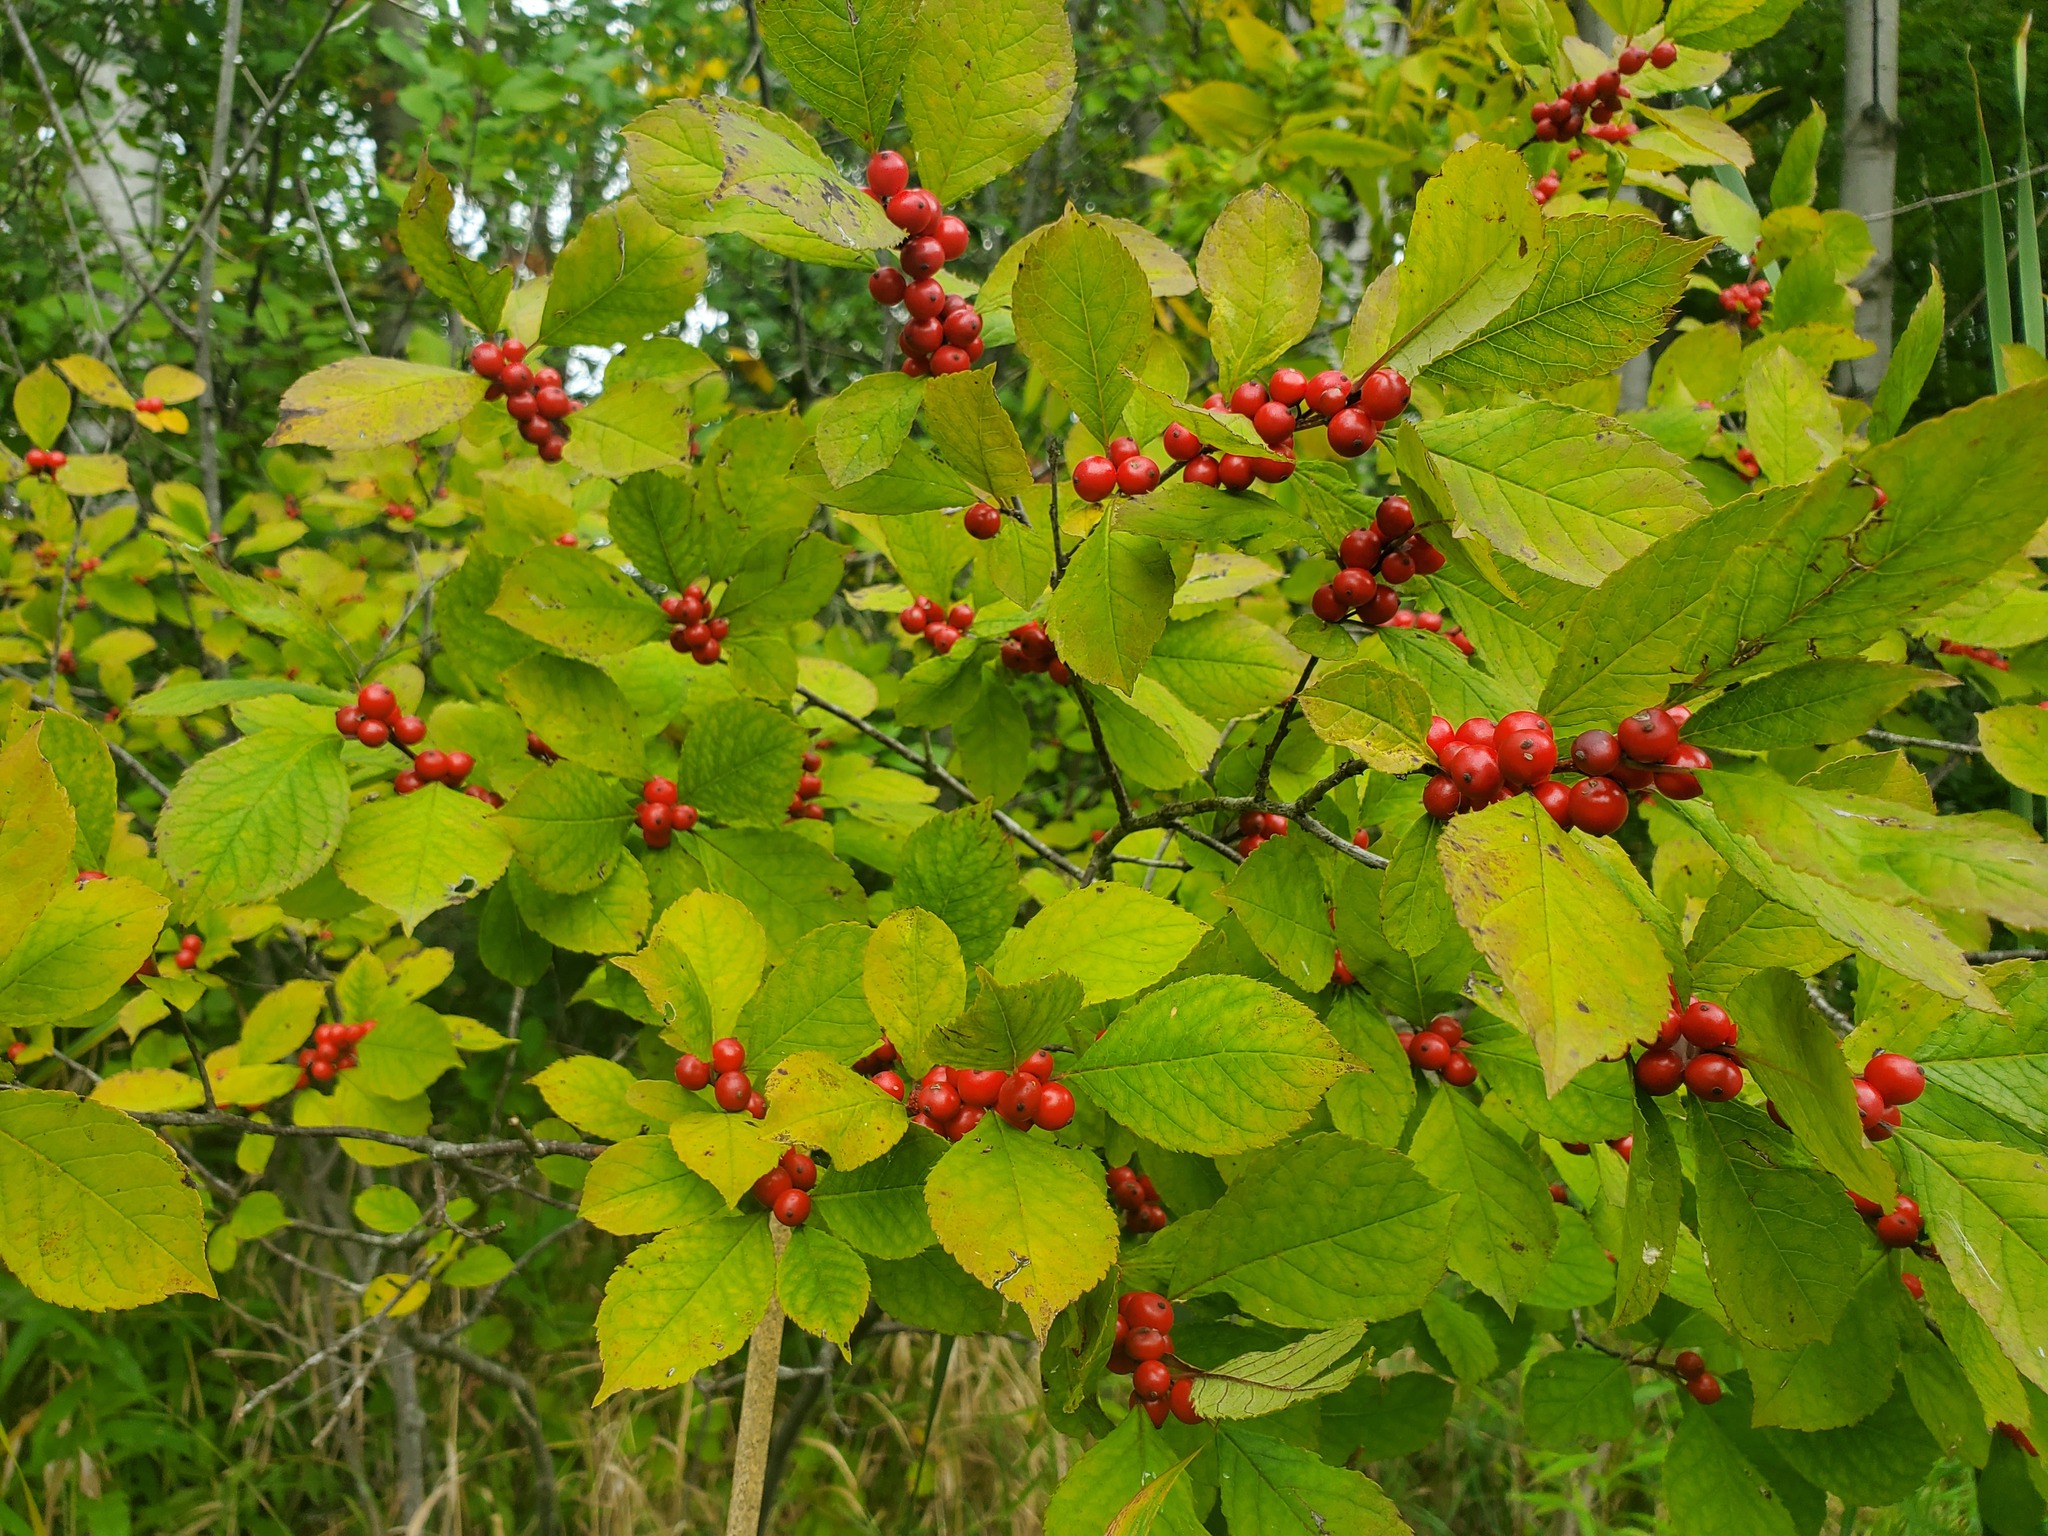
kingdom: Plantae
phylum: Tracheophyta
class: Magnoliopsida
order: Aquifoliales
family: Aquifoliaceae
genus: Ilex
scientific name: Ilex verticillata
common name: Virginia winterberry
